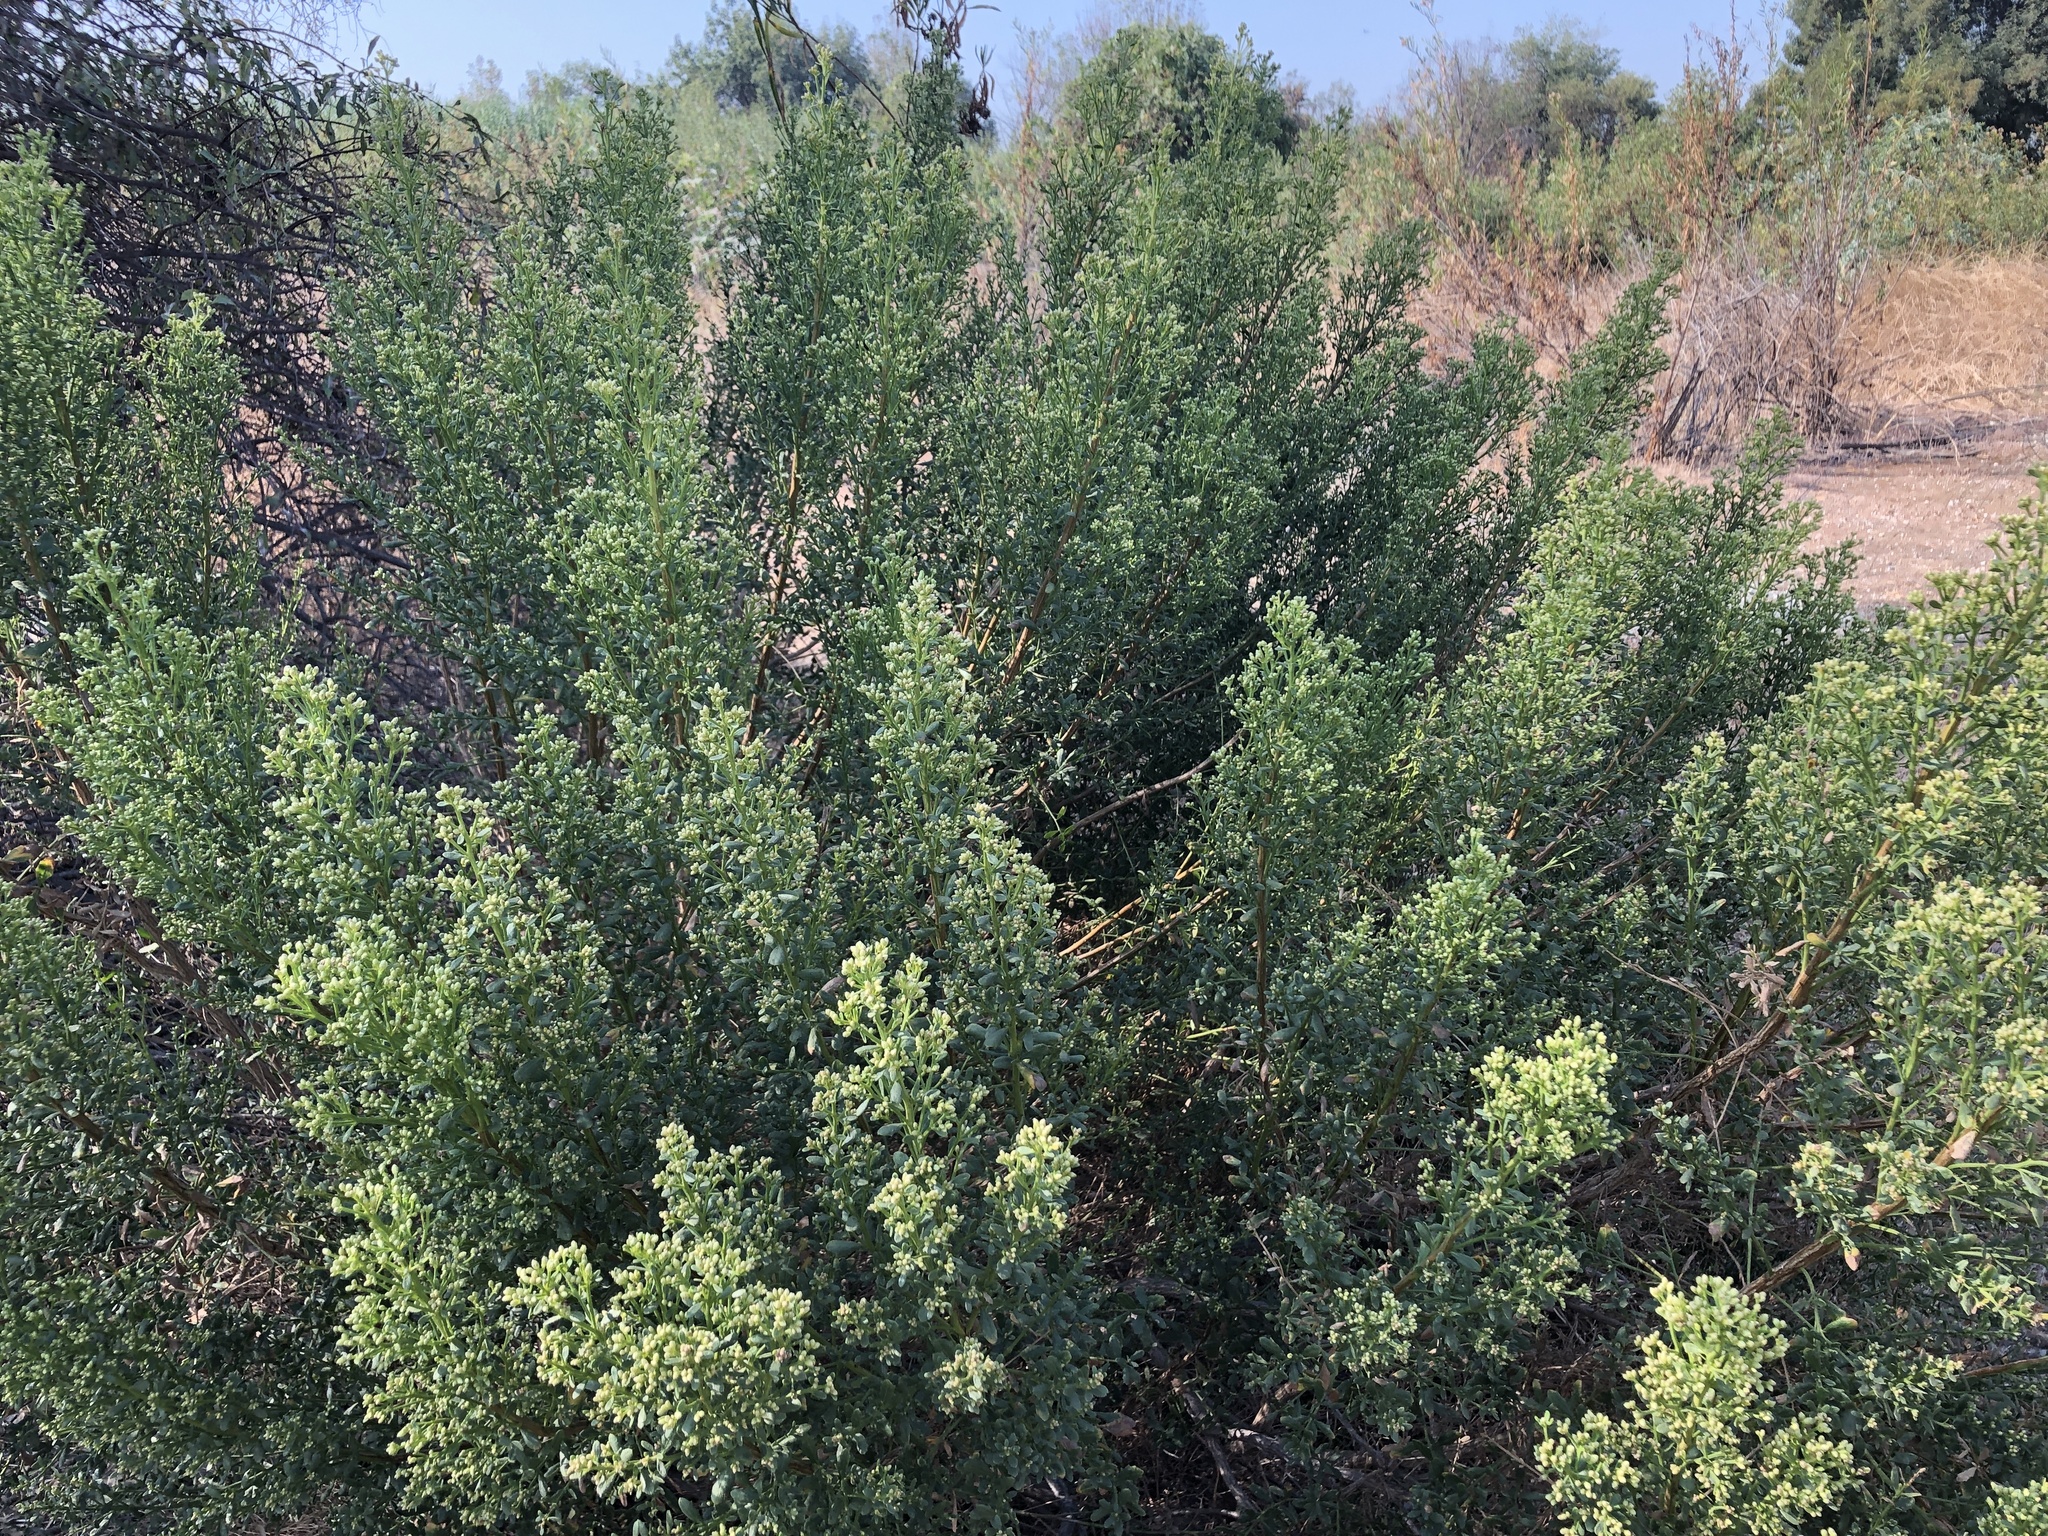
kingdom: Plantae
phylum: Tracheophyta
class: Magnoliopsida
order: Asterales
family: Asteraceae
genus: Baccharis
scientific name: Baccharis pilularis
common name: Coyotebrush
